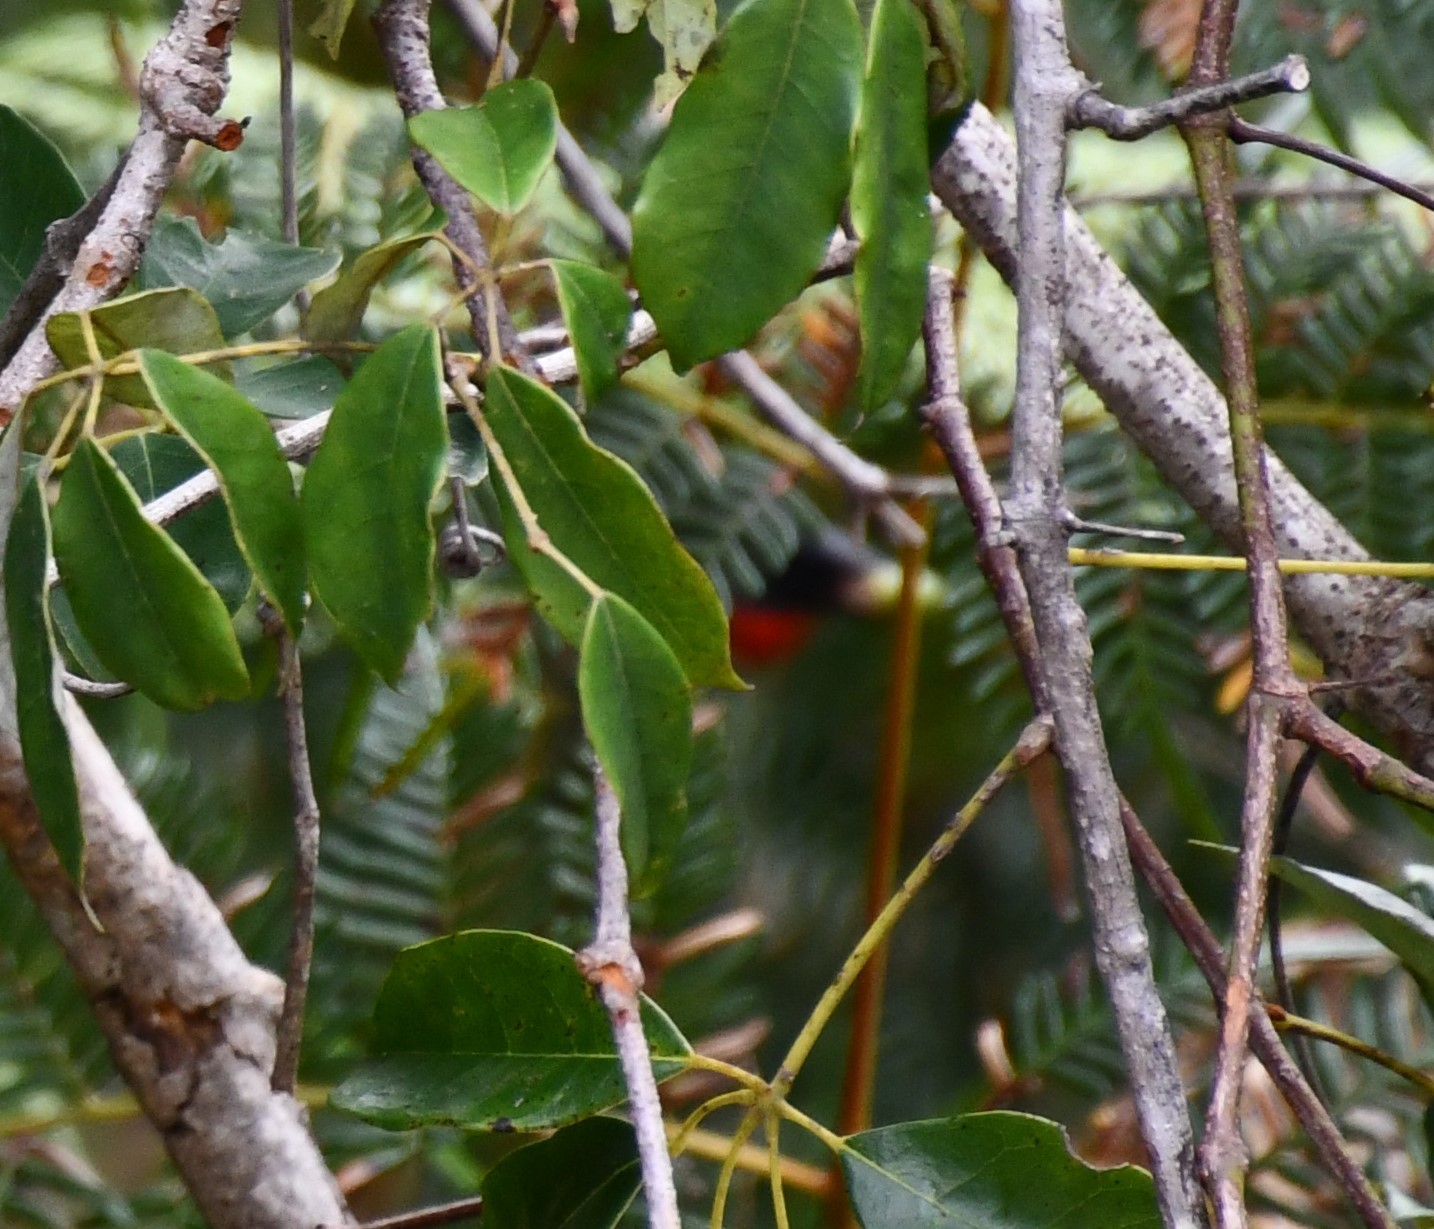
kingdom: Animalia
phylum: Chordata
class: Aves
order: Passeriformes
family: Dicaeidae
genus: Dicaeum
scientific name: Dicaeum hirundinaceum
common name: Mistletoebird
